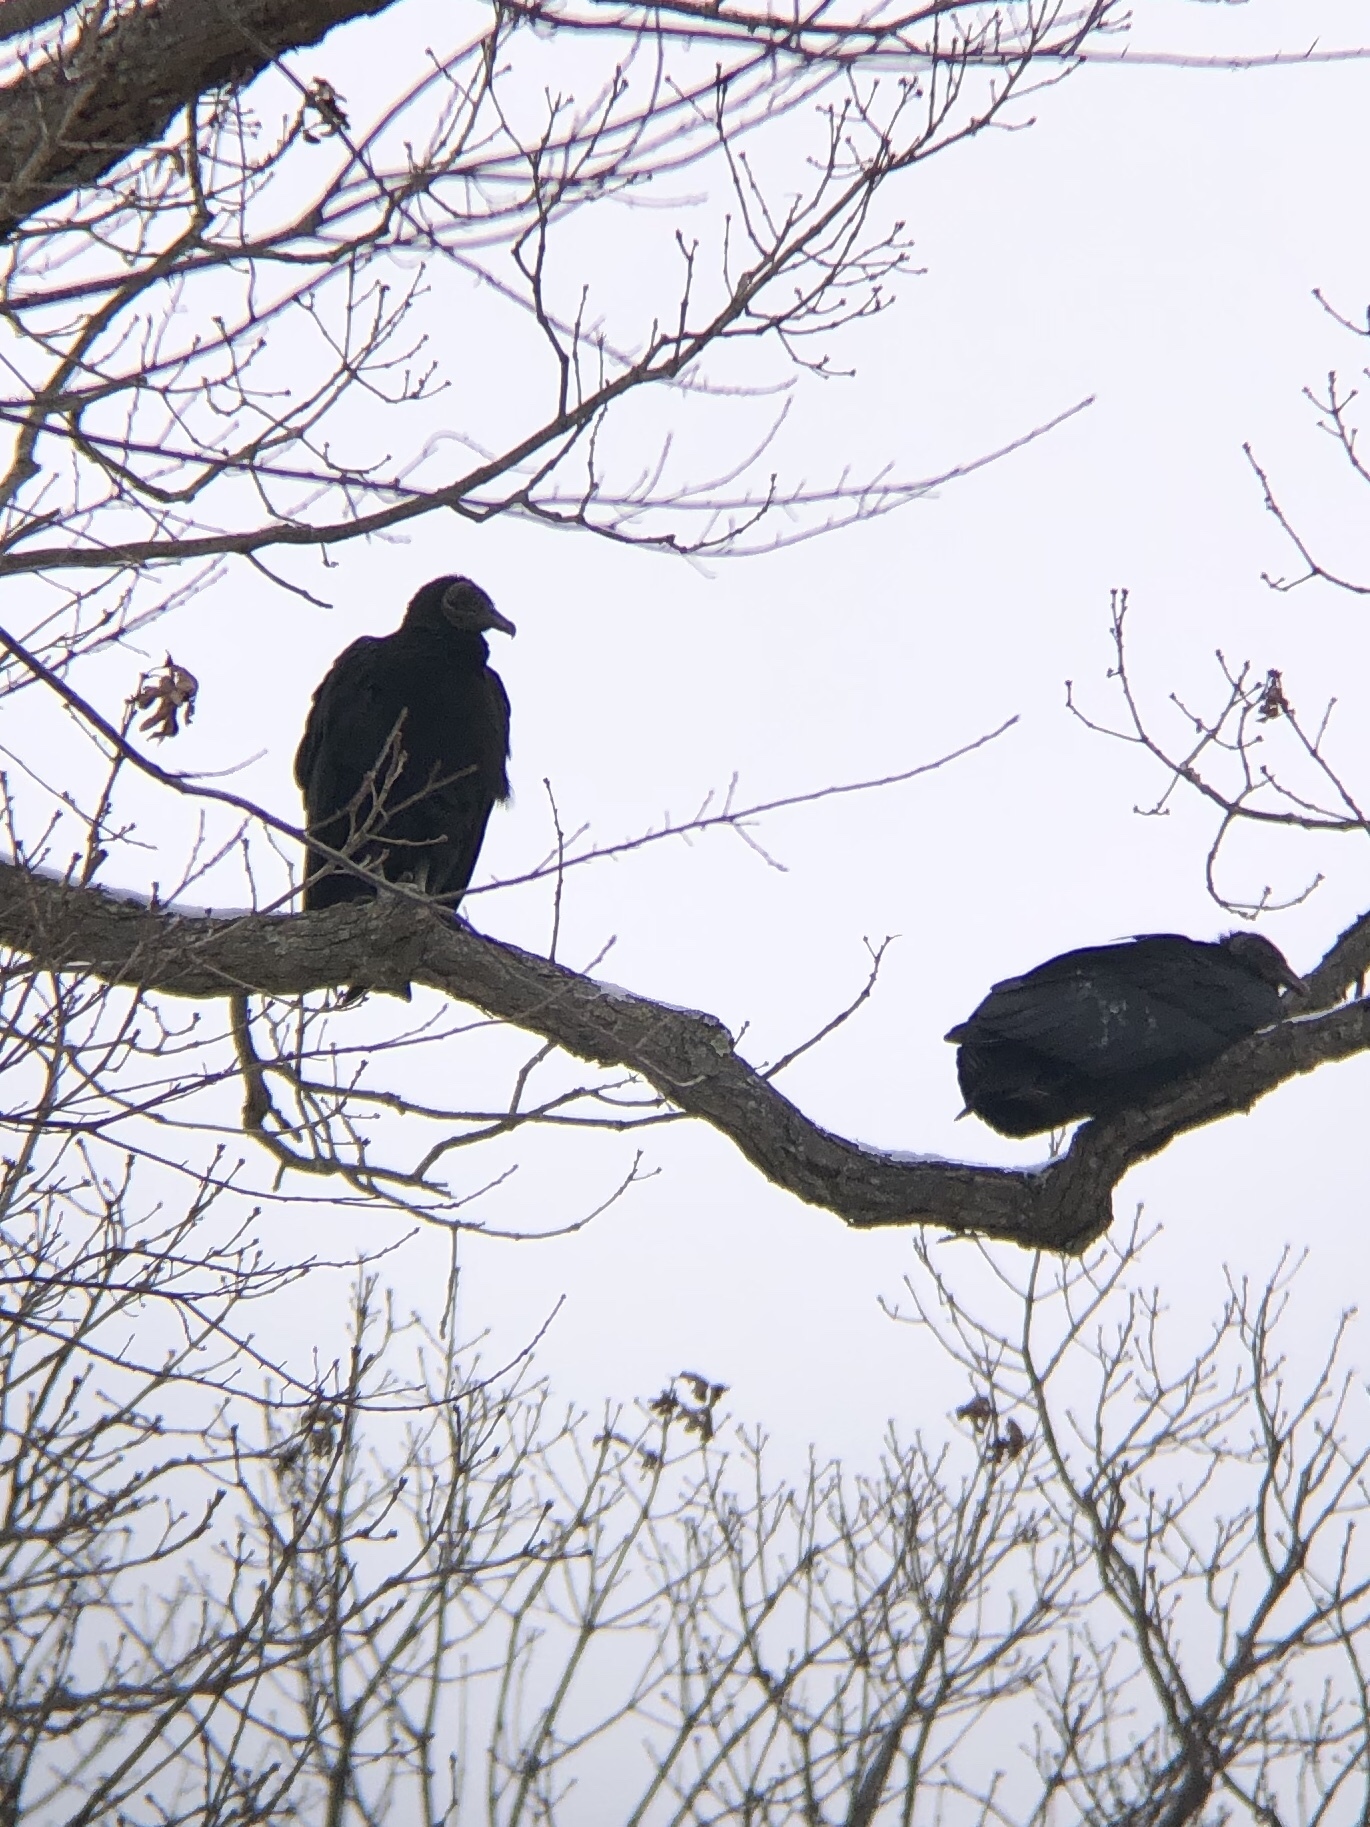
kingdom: Animalia
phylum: Chordata
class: Aves
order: Accipitriformes
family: Cathartidae
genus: Coragyps
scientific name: Coragyps atratus
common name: Black vulture
